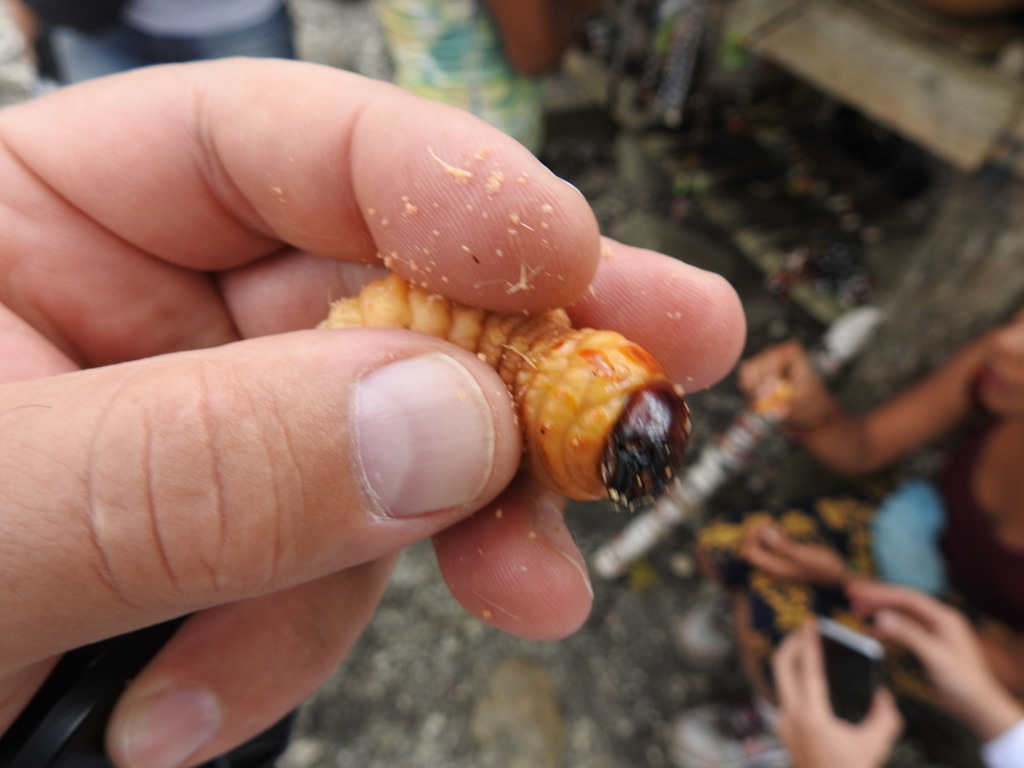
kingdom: Animalia
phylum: Arthropoda
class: Insecta
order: Coleoptera
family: Dryophthoridae
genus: Rhynchophorus
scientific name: Rhynchophorus palmarum
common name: Palm weevil
